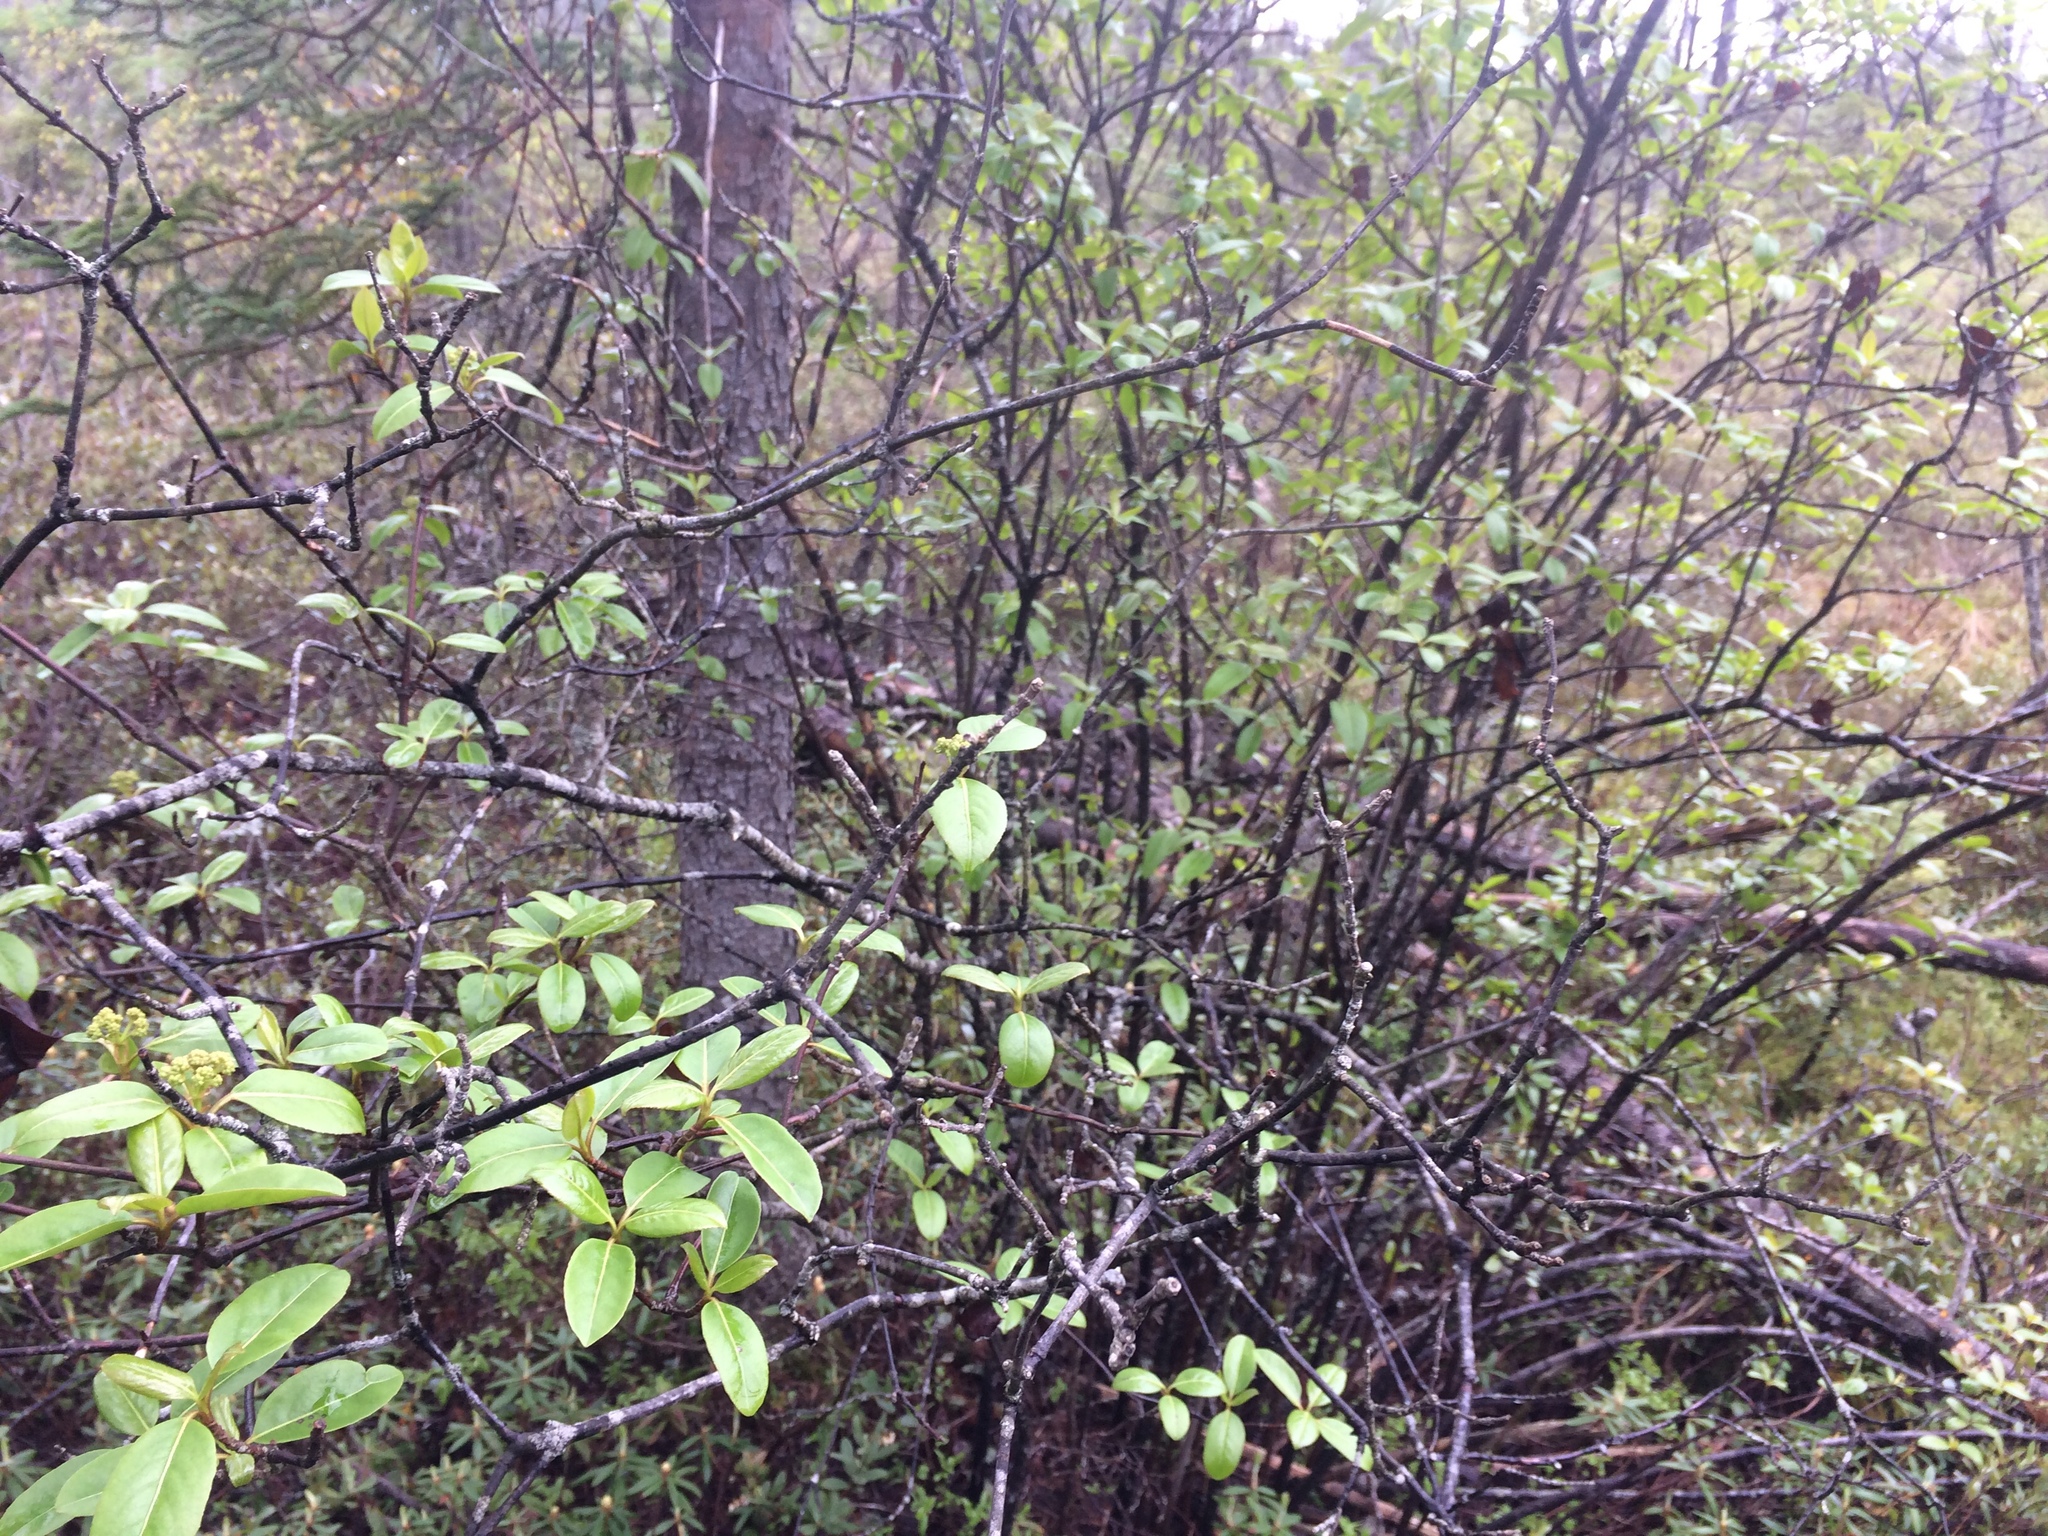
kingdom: Plantae
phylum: Tracheophyta
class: Magnoliopsida
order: Dipsacales
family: Viburnaceae
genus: Viburnum
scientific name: Viburnum cassinoides
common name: Swamp haw
